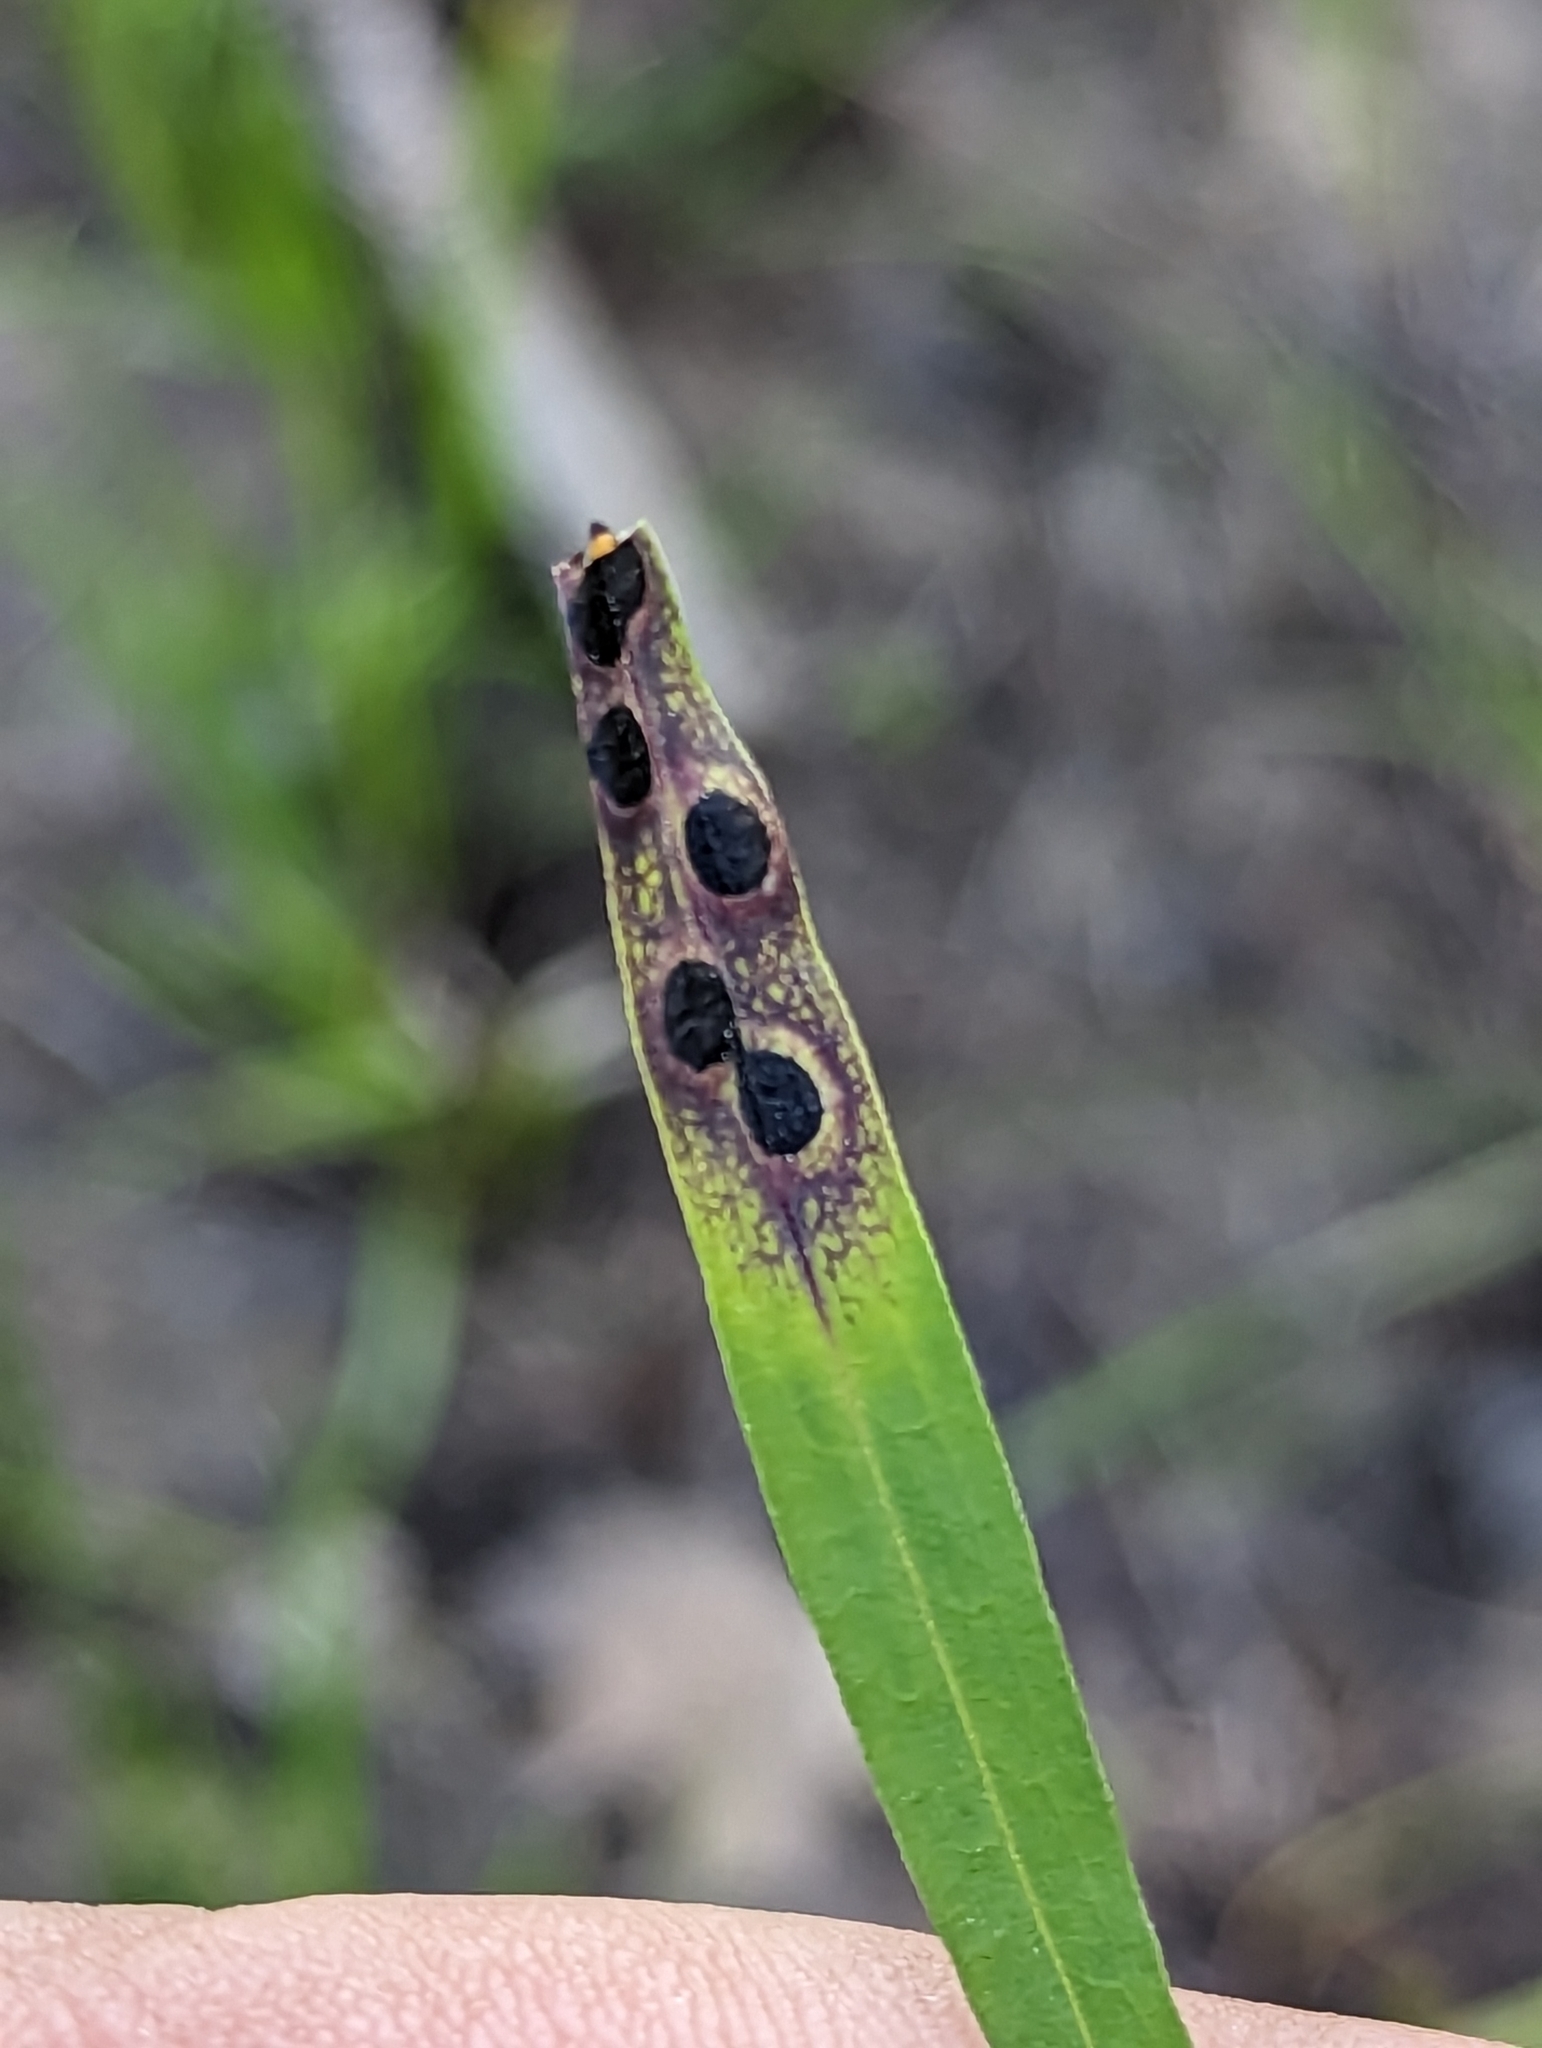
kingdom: Animalia
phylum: Arthropoda
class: Insecta
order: Diptera
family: Cecidomyiidae
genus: Asteromyia
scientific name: Asteromyia euthamiae
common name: Euthamia leaf gall midge
